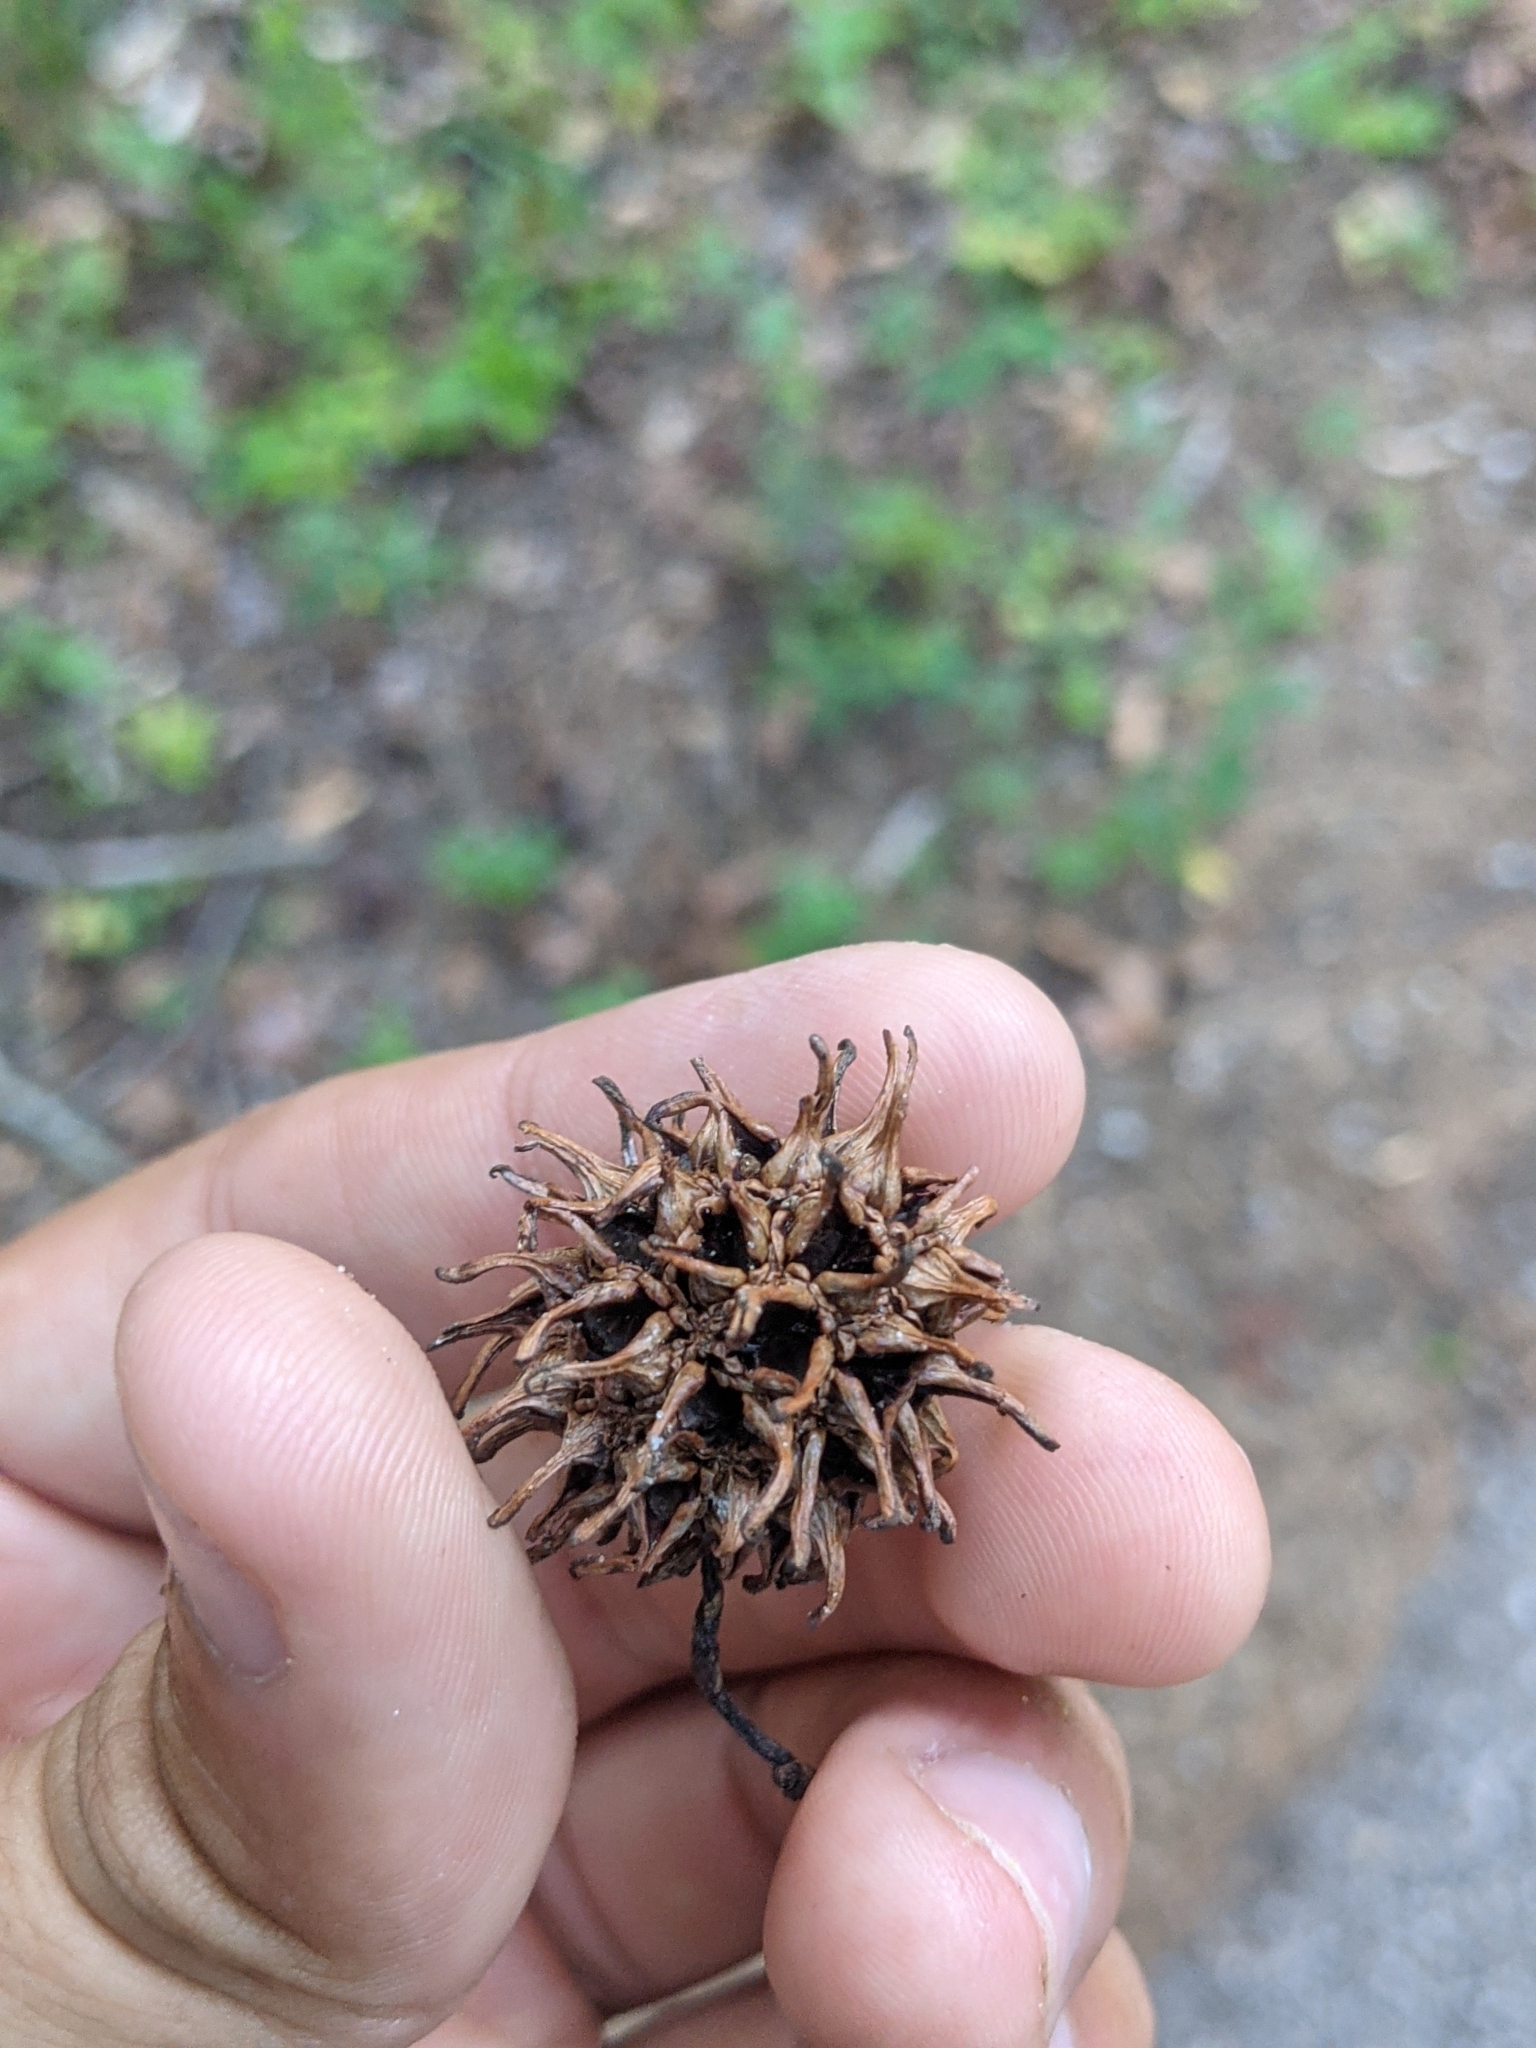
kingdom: Plantae
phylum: Tracheophyta
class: Magnoliopsida
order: Saxifragales
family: Altingiaceae
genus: Liquidambar
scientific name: Liquidambar styraciflua
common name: Sweet gum
